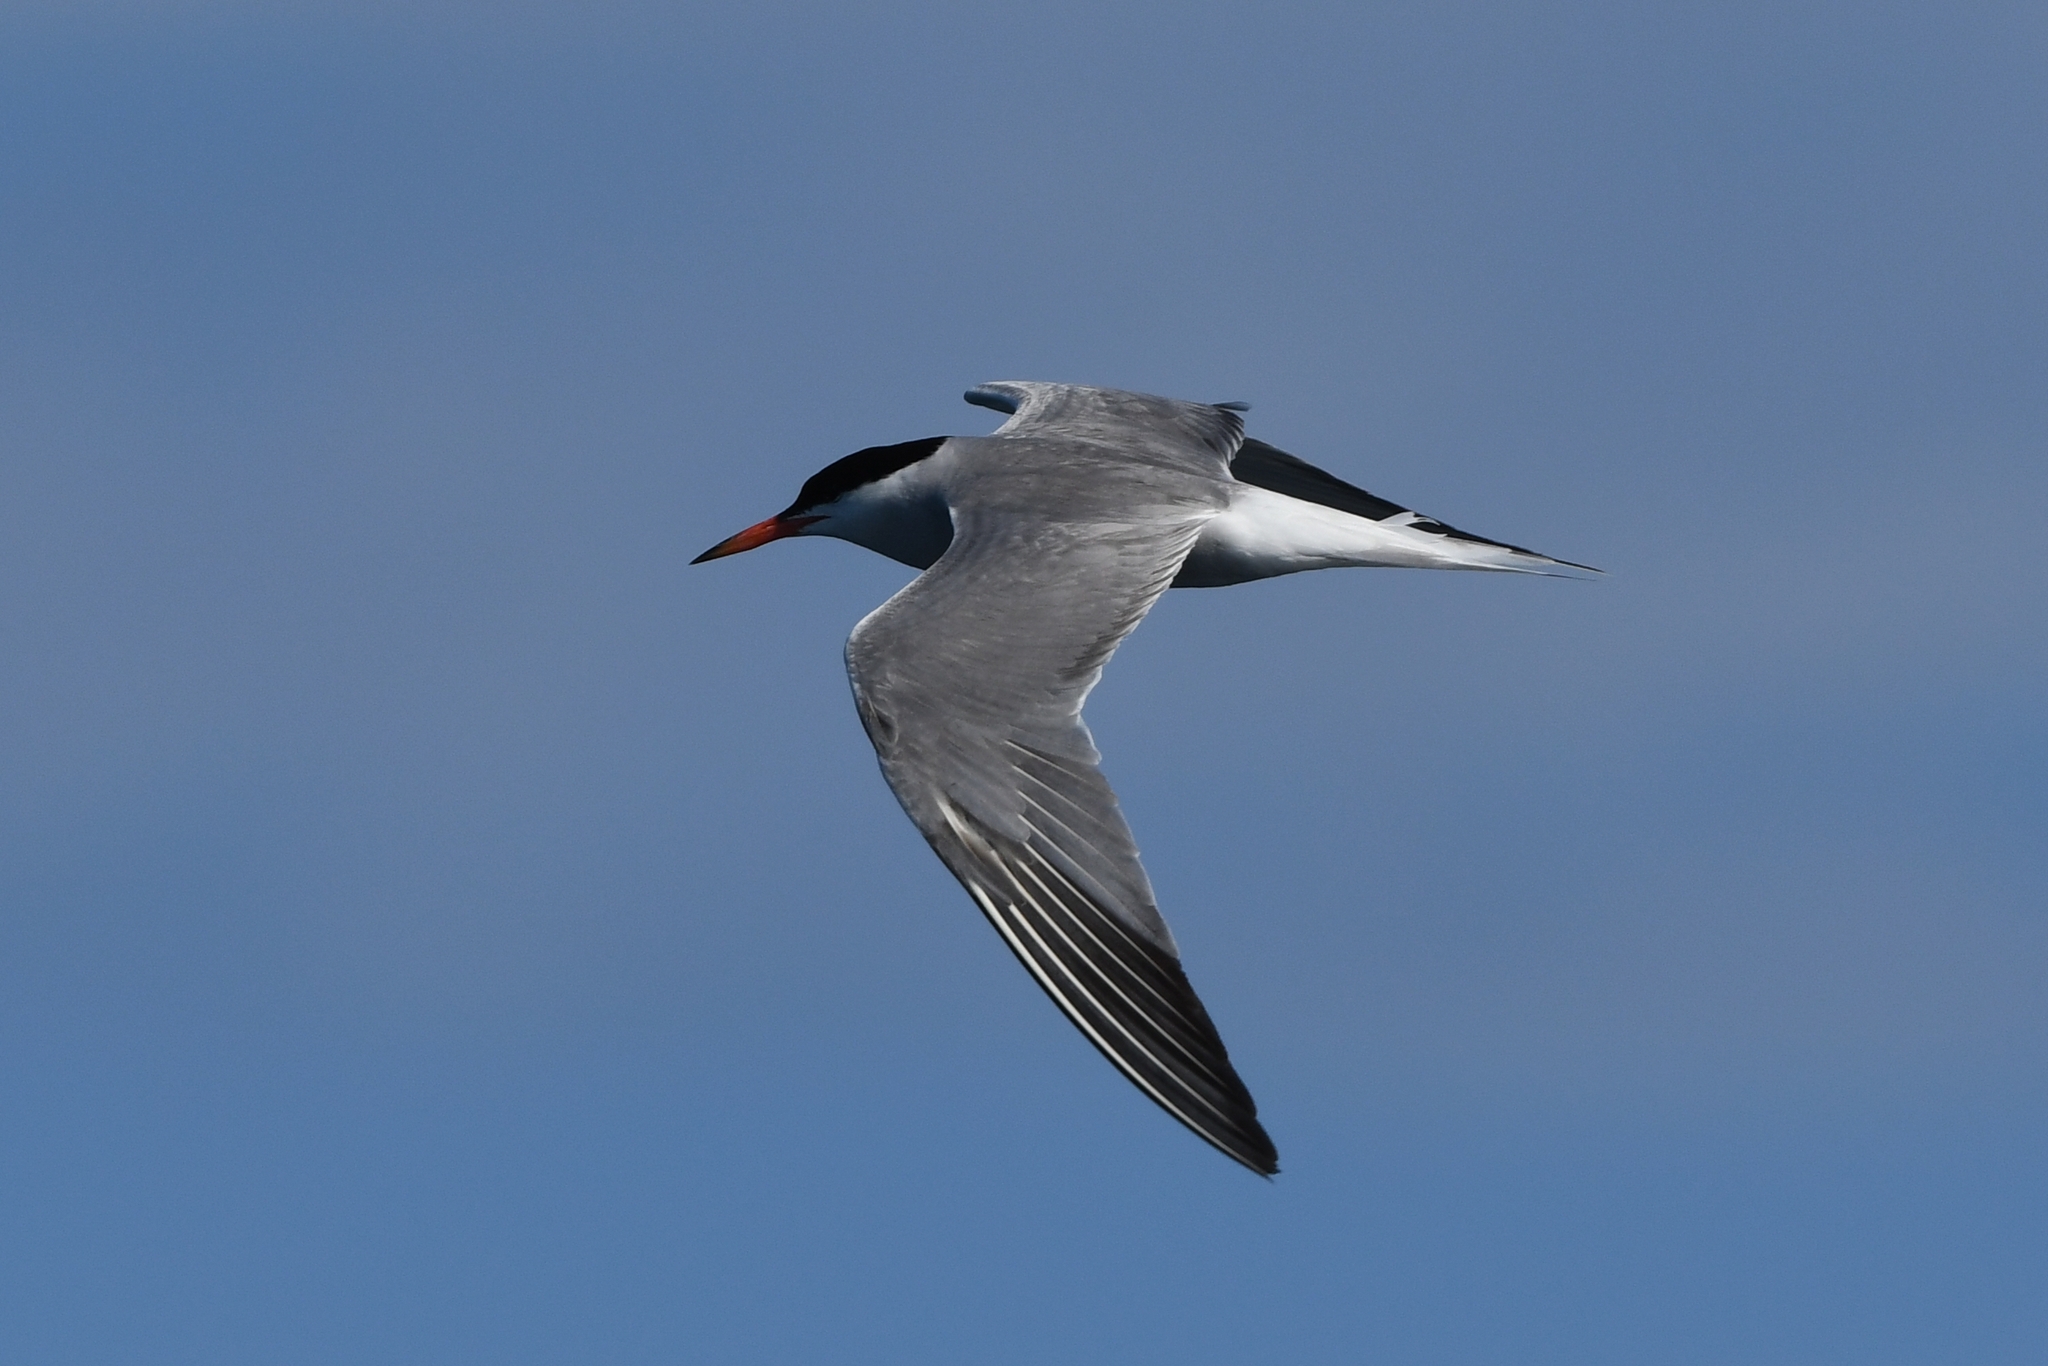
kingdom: Animalia
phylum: Chordata
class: Aves
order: Charadriiformes
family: Laridae
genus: Sterna
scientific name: Sterna hirundo
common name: Common tern
